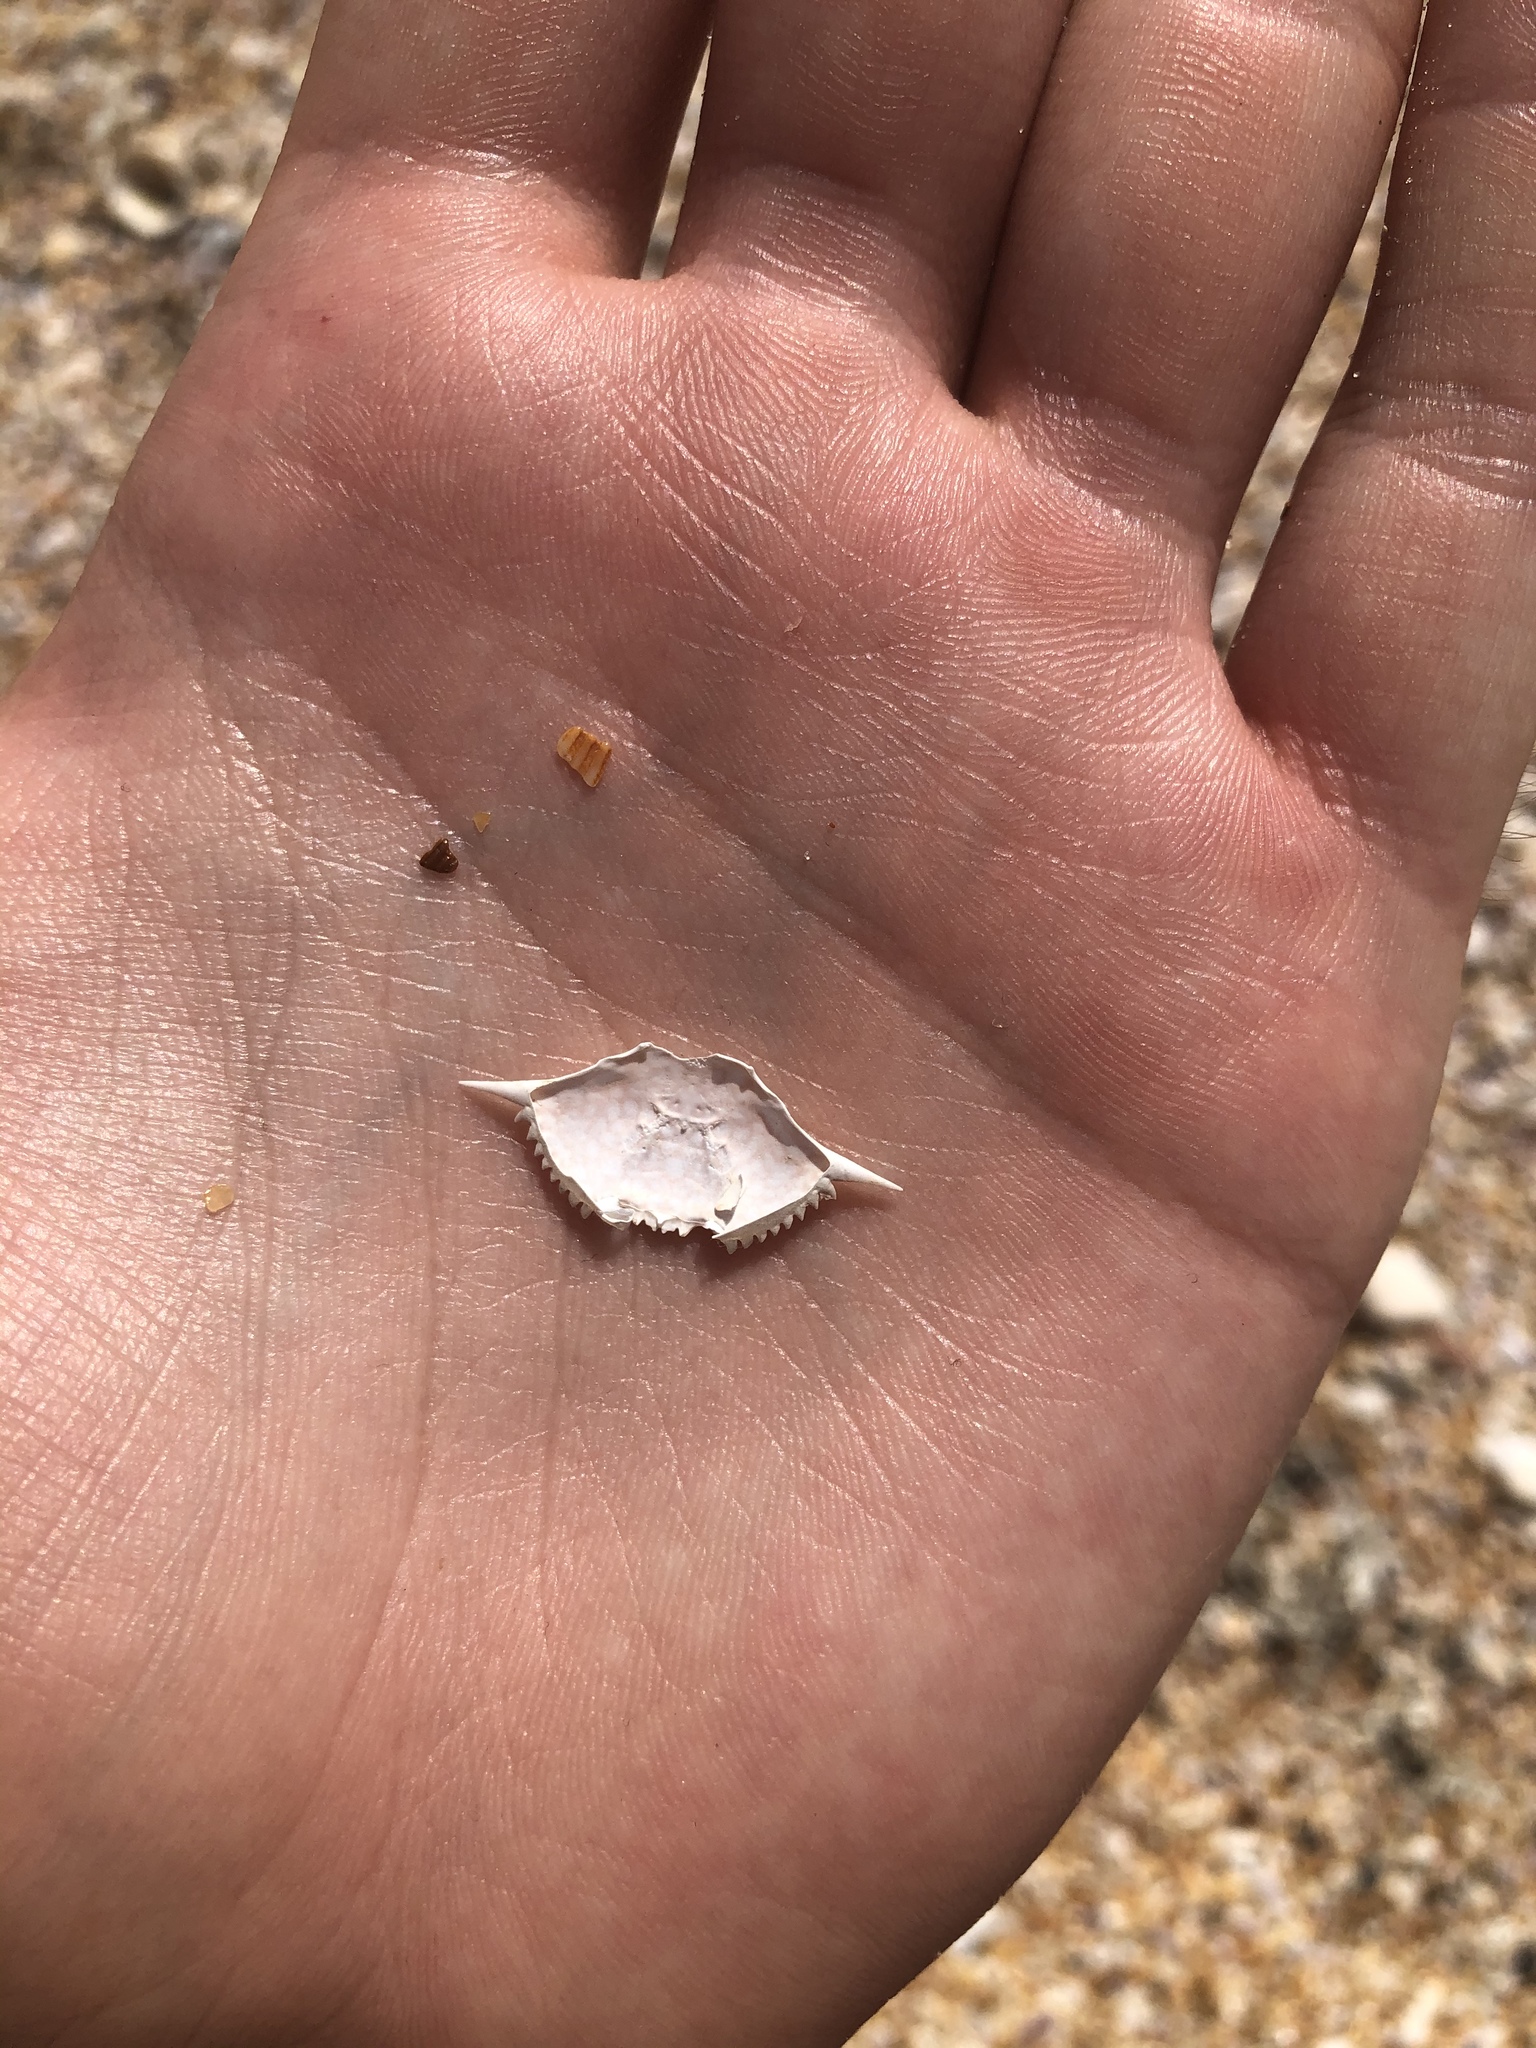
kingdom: Animalia
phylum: Arthropoda
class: Malacostraca
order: Decapoda
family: Portunidae
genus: Arenaeus
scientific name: Arenaeus cribrarius
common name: Speckled crab
